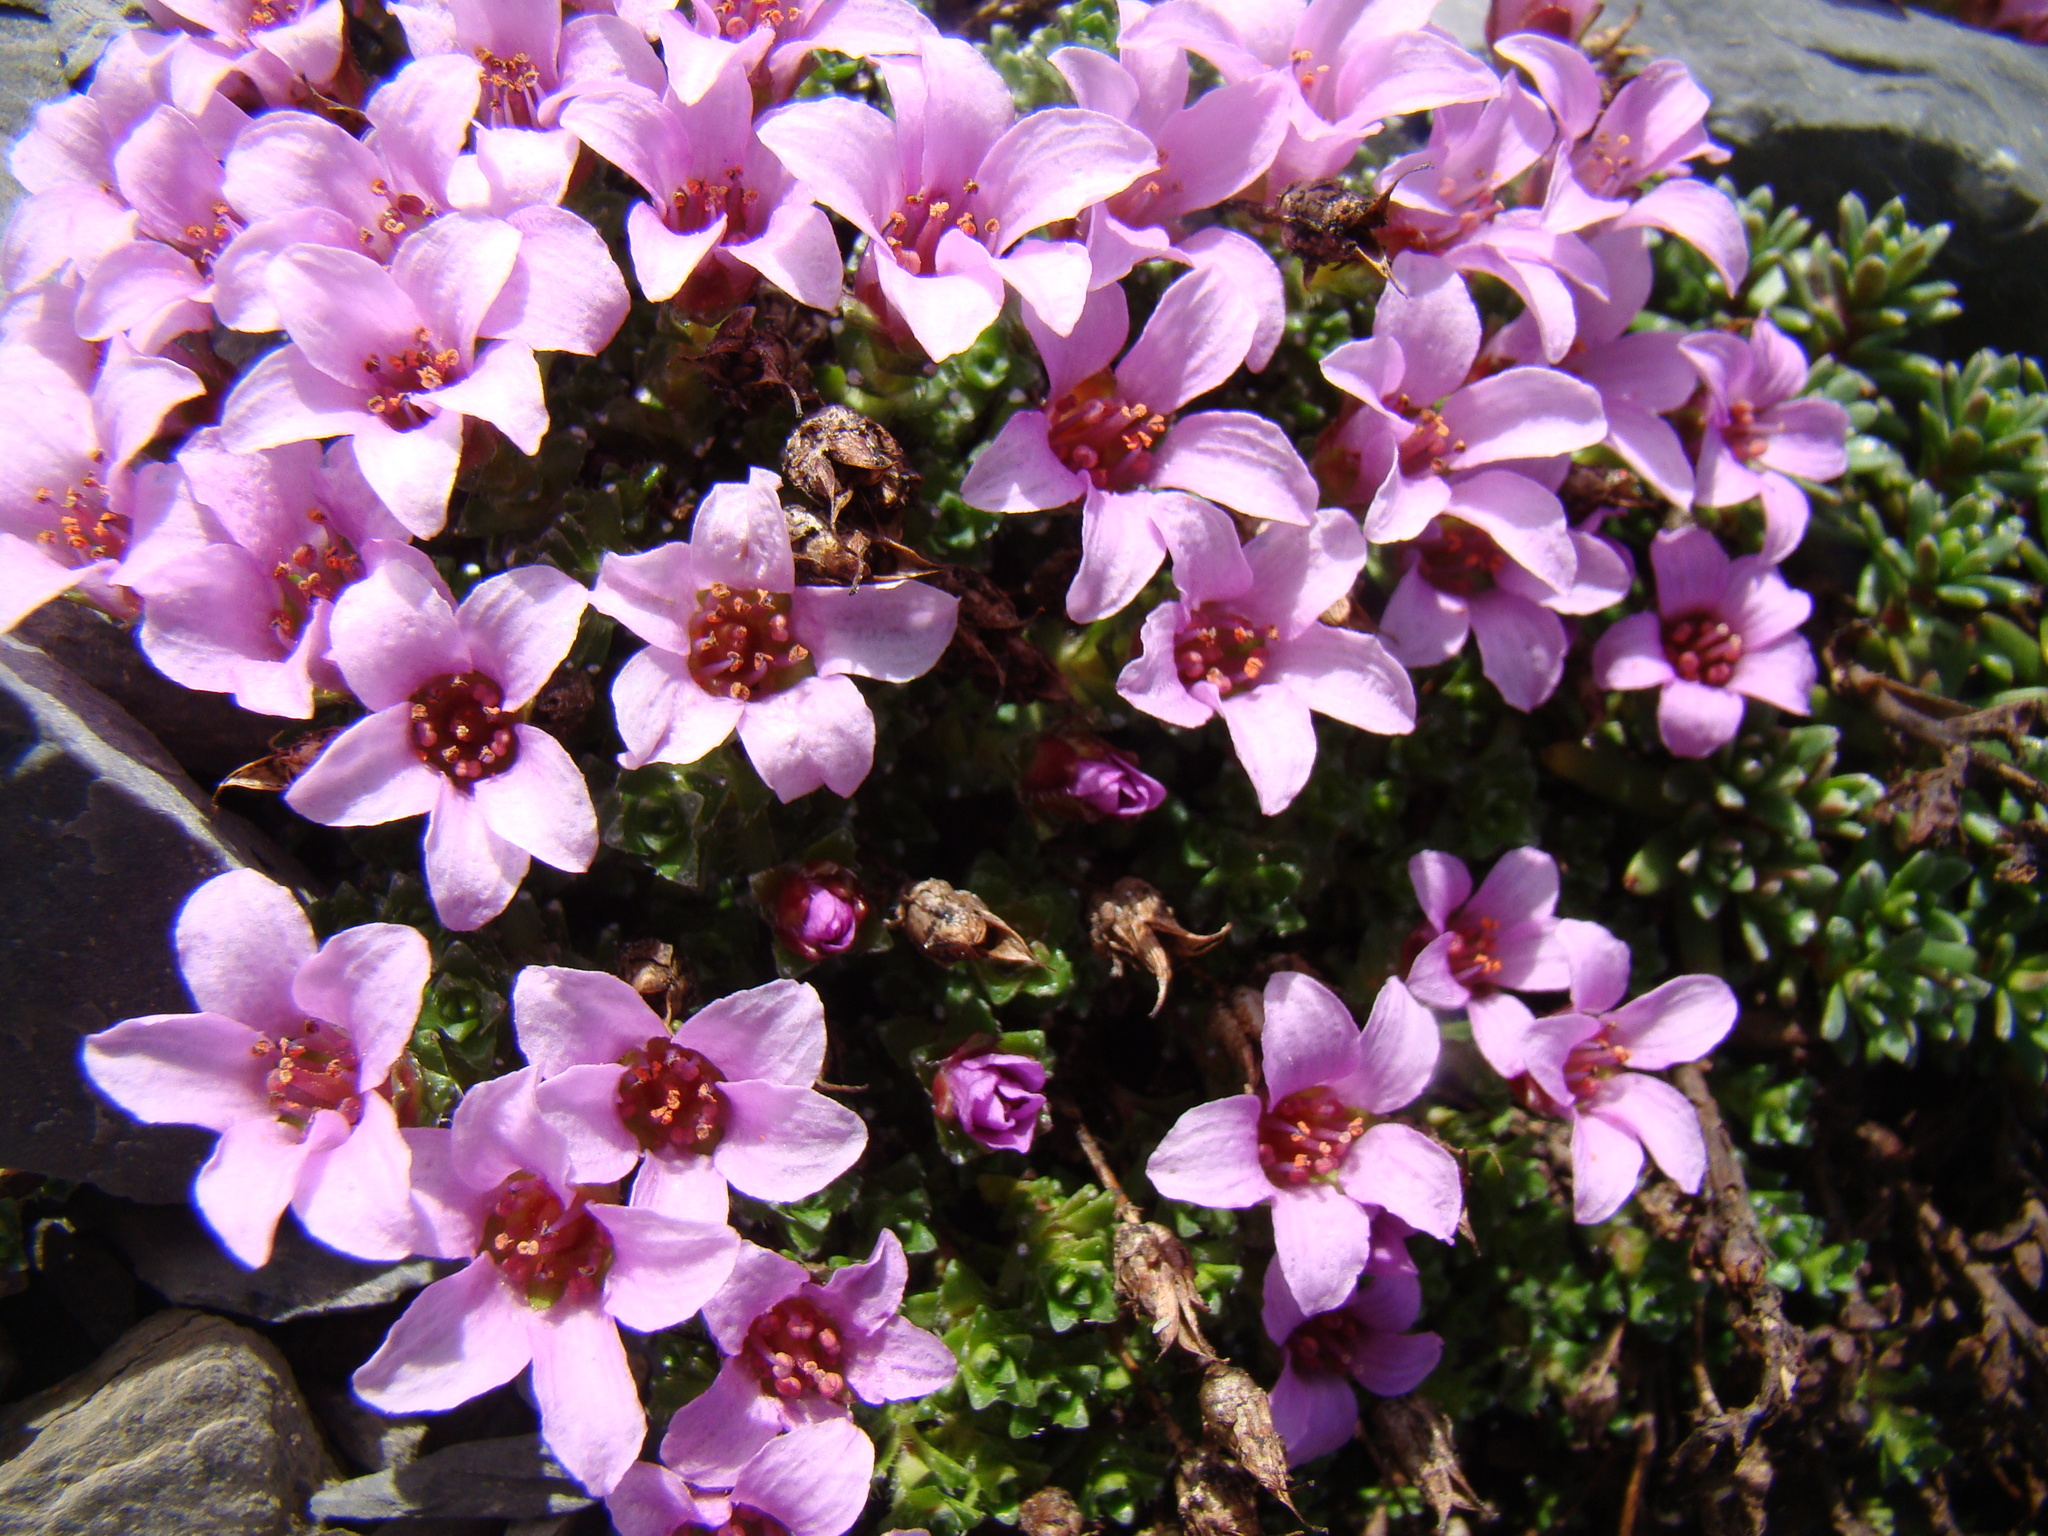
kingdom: Plantae
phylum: Tracheophyta
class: Magnoliopsida
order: Saxifragales
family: Saxifragaceae
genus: Saxifraga
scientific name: Saxifraga oppositifolia
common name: Purple saxifrage
